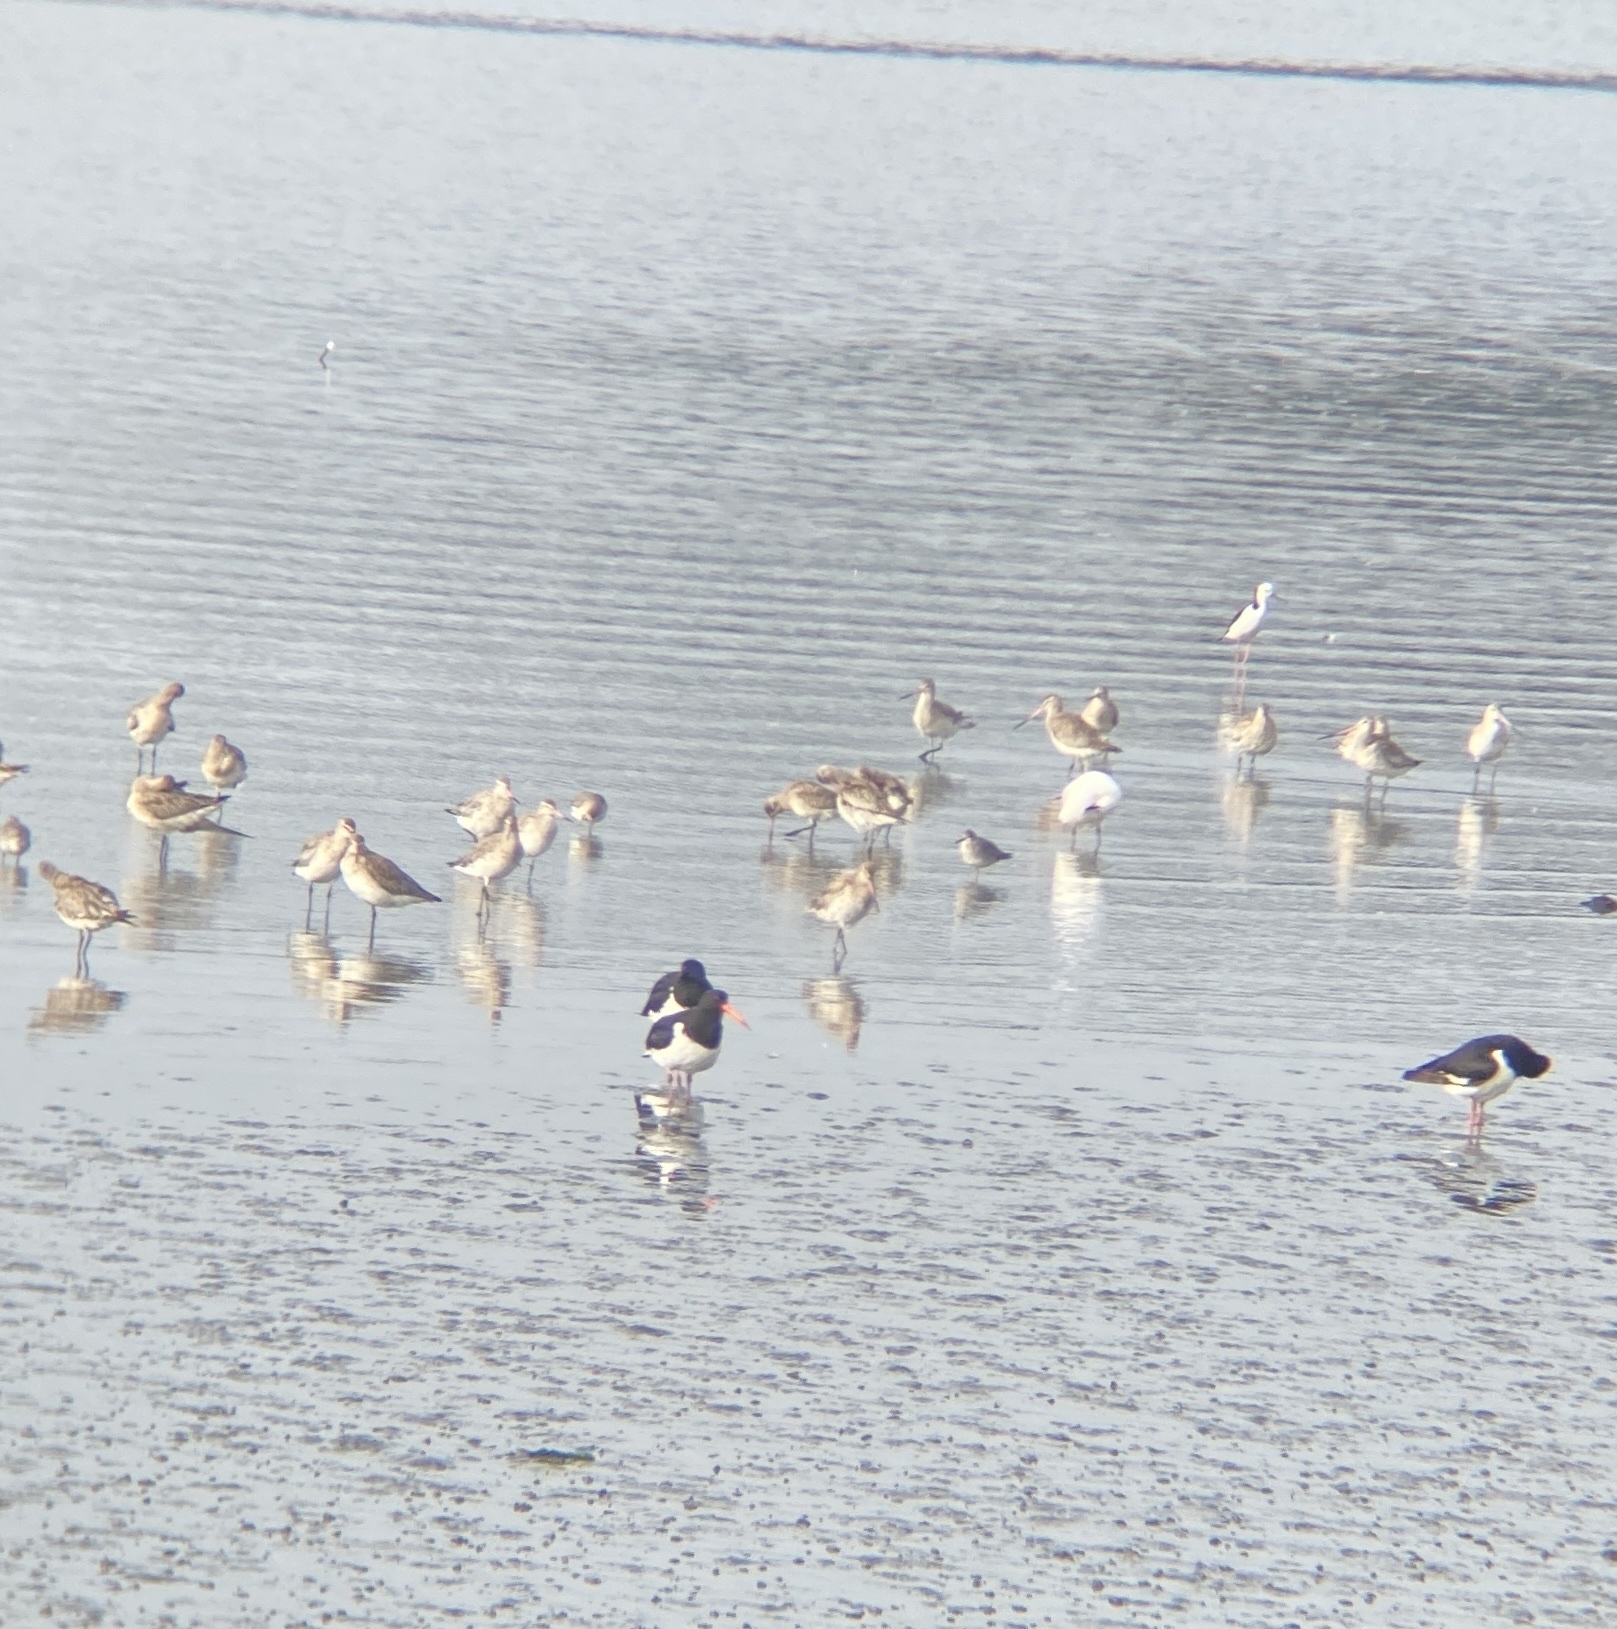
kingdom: Animalia
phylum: Chordata
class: Aves
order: Charadriiformes
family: Scolopacidae
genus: Tringa
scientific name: Tringa brevipes
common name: Grey-tailed tattler
